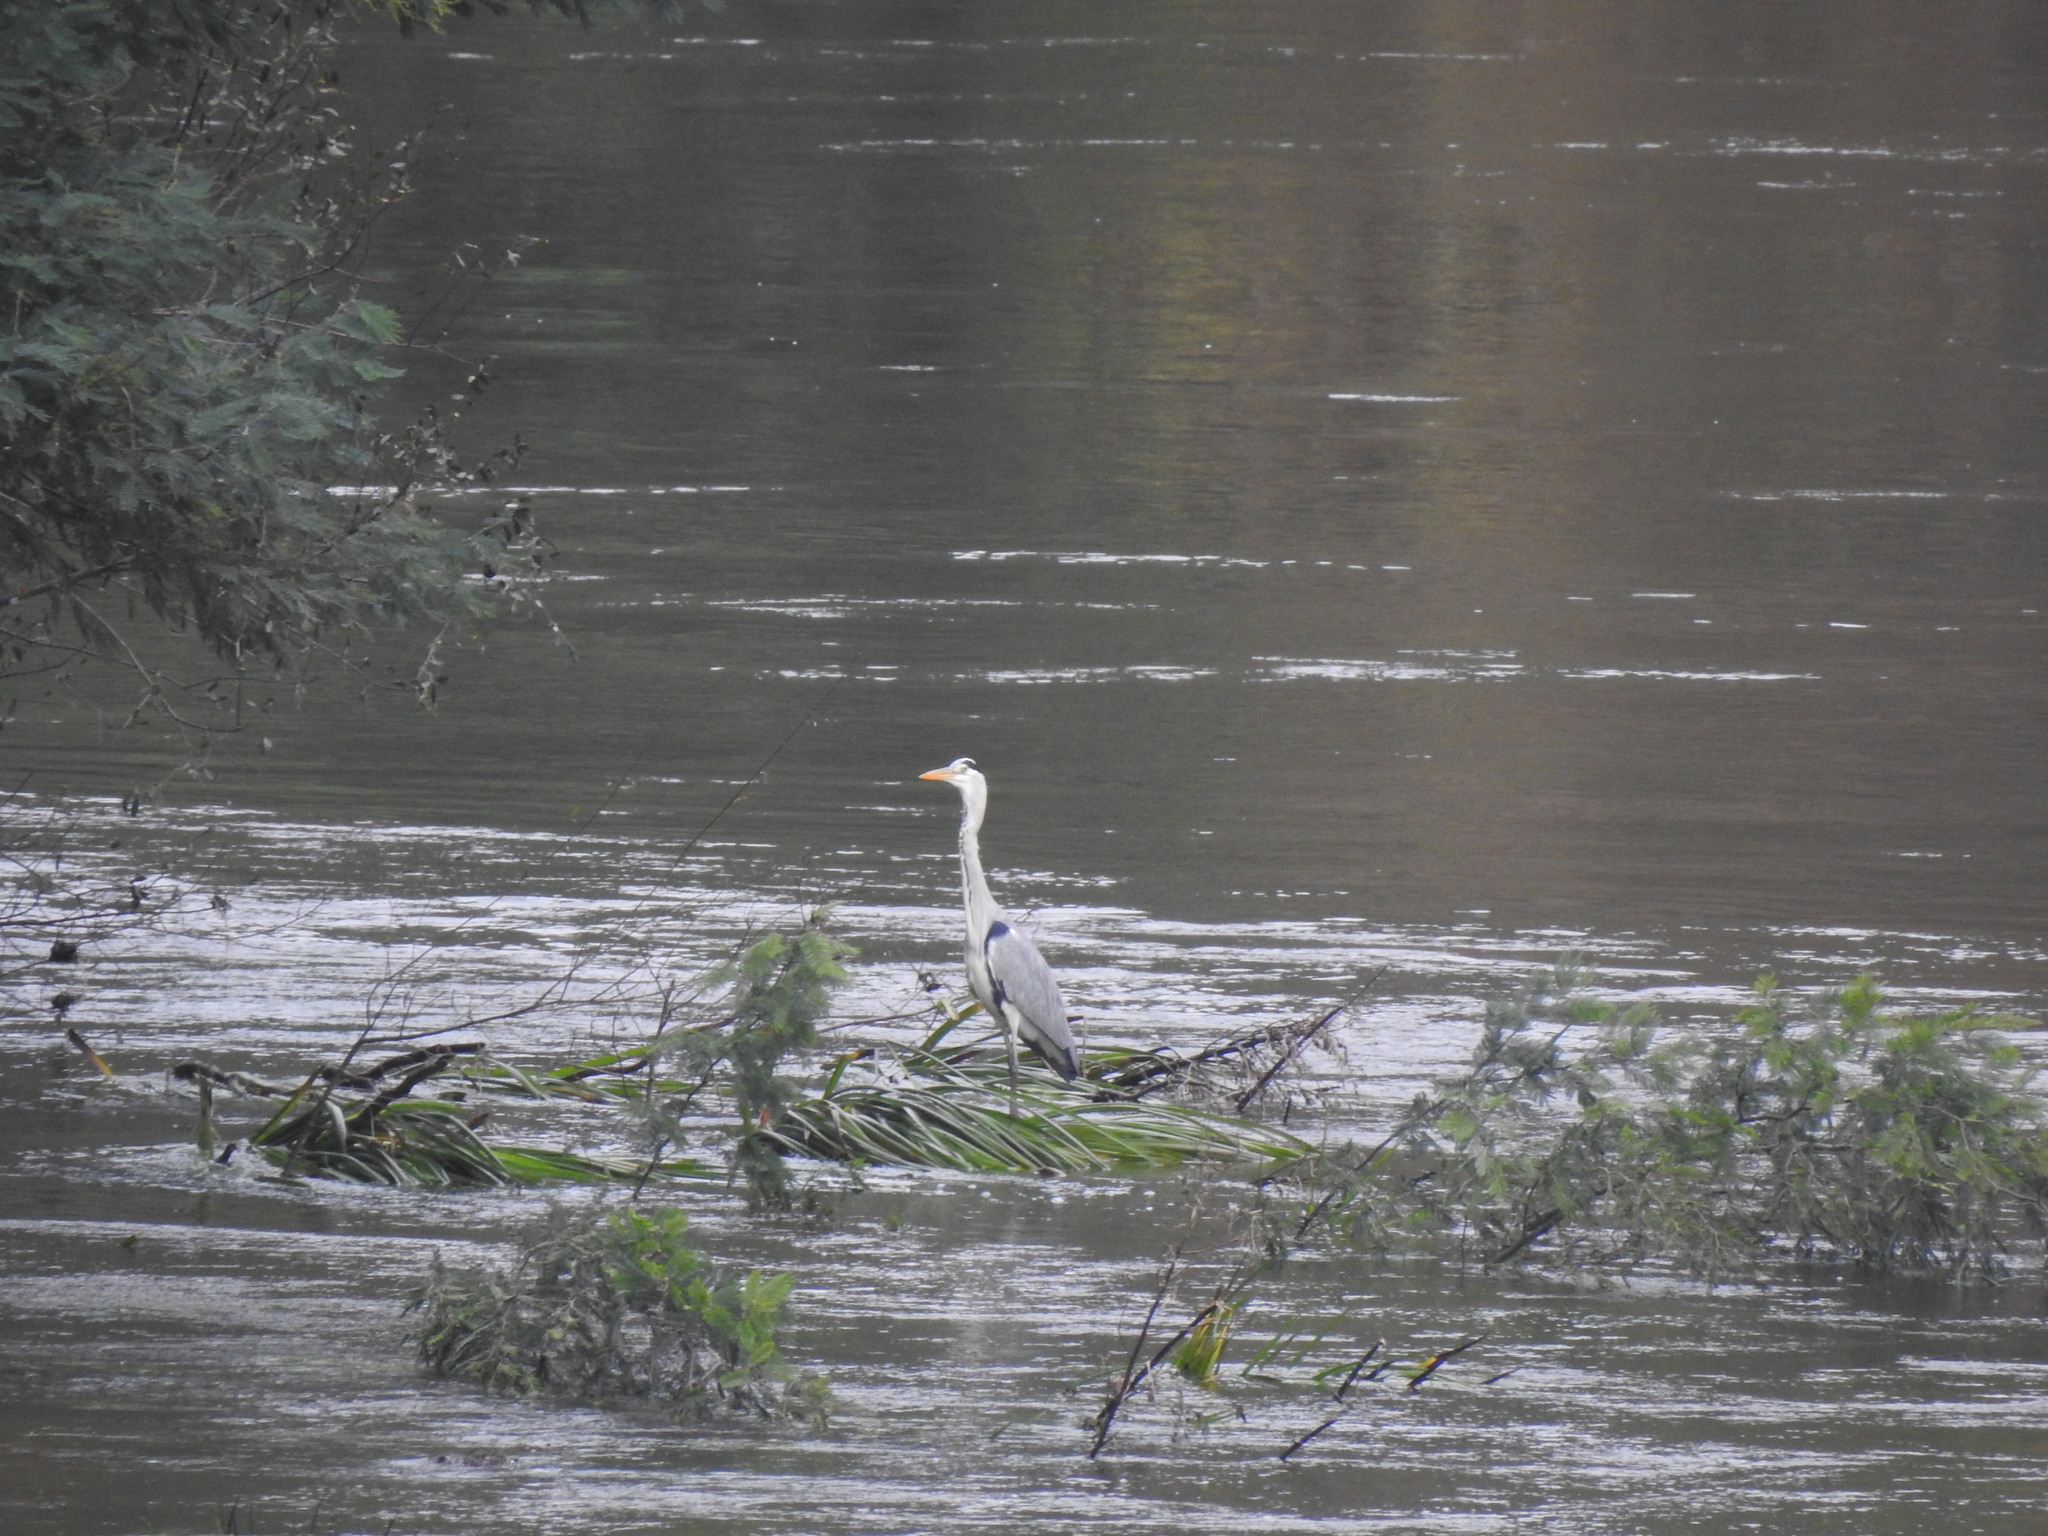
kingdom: Animalia
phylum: Chordata
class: Aves
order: Pelecaniformes
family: Ardeidae
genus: Ardea
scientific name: Ardea cinerea
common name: Grey heron
